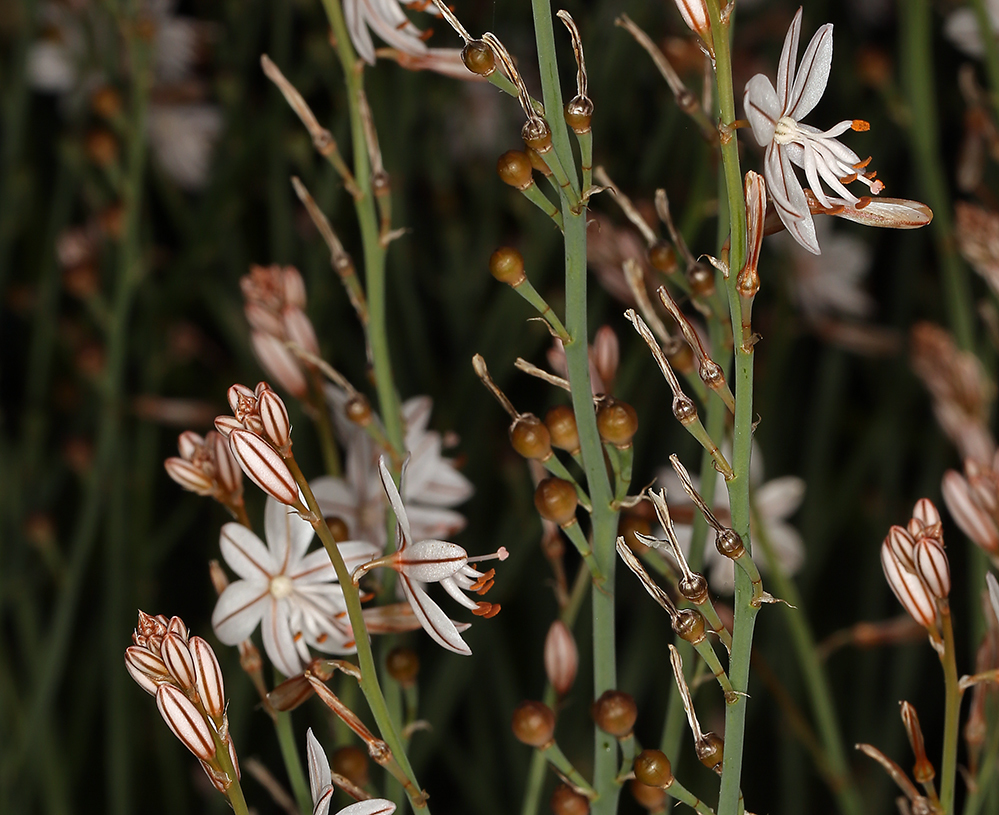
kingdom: Plantae
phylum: Tracheophyta
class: Liliopsida
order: Asparagales
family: Asphodelaceae
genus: Asphodelus
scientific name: Asphodelus fistulosus
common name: Onionweed
